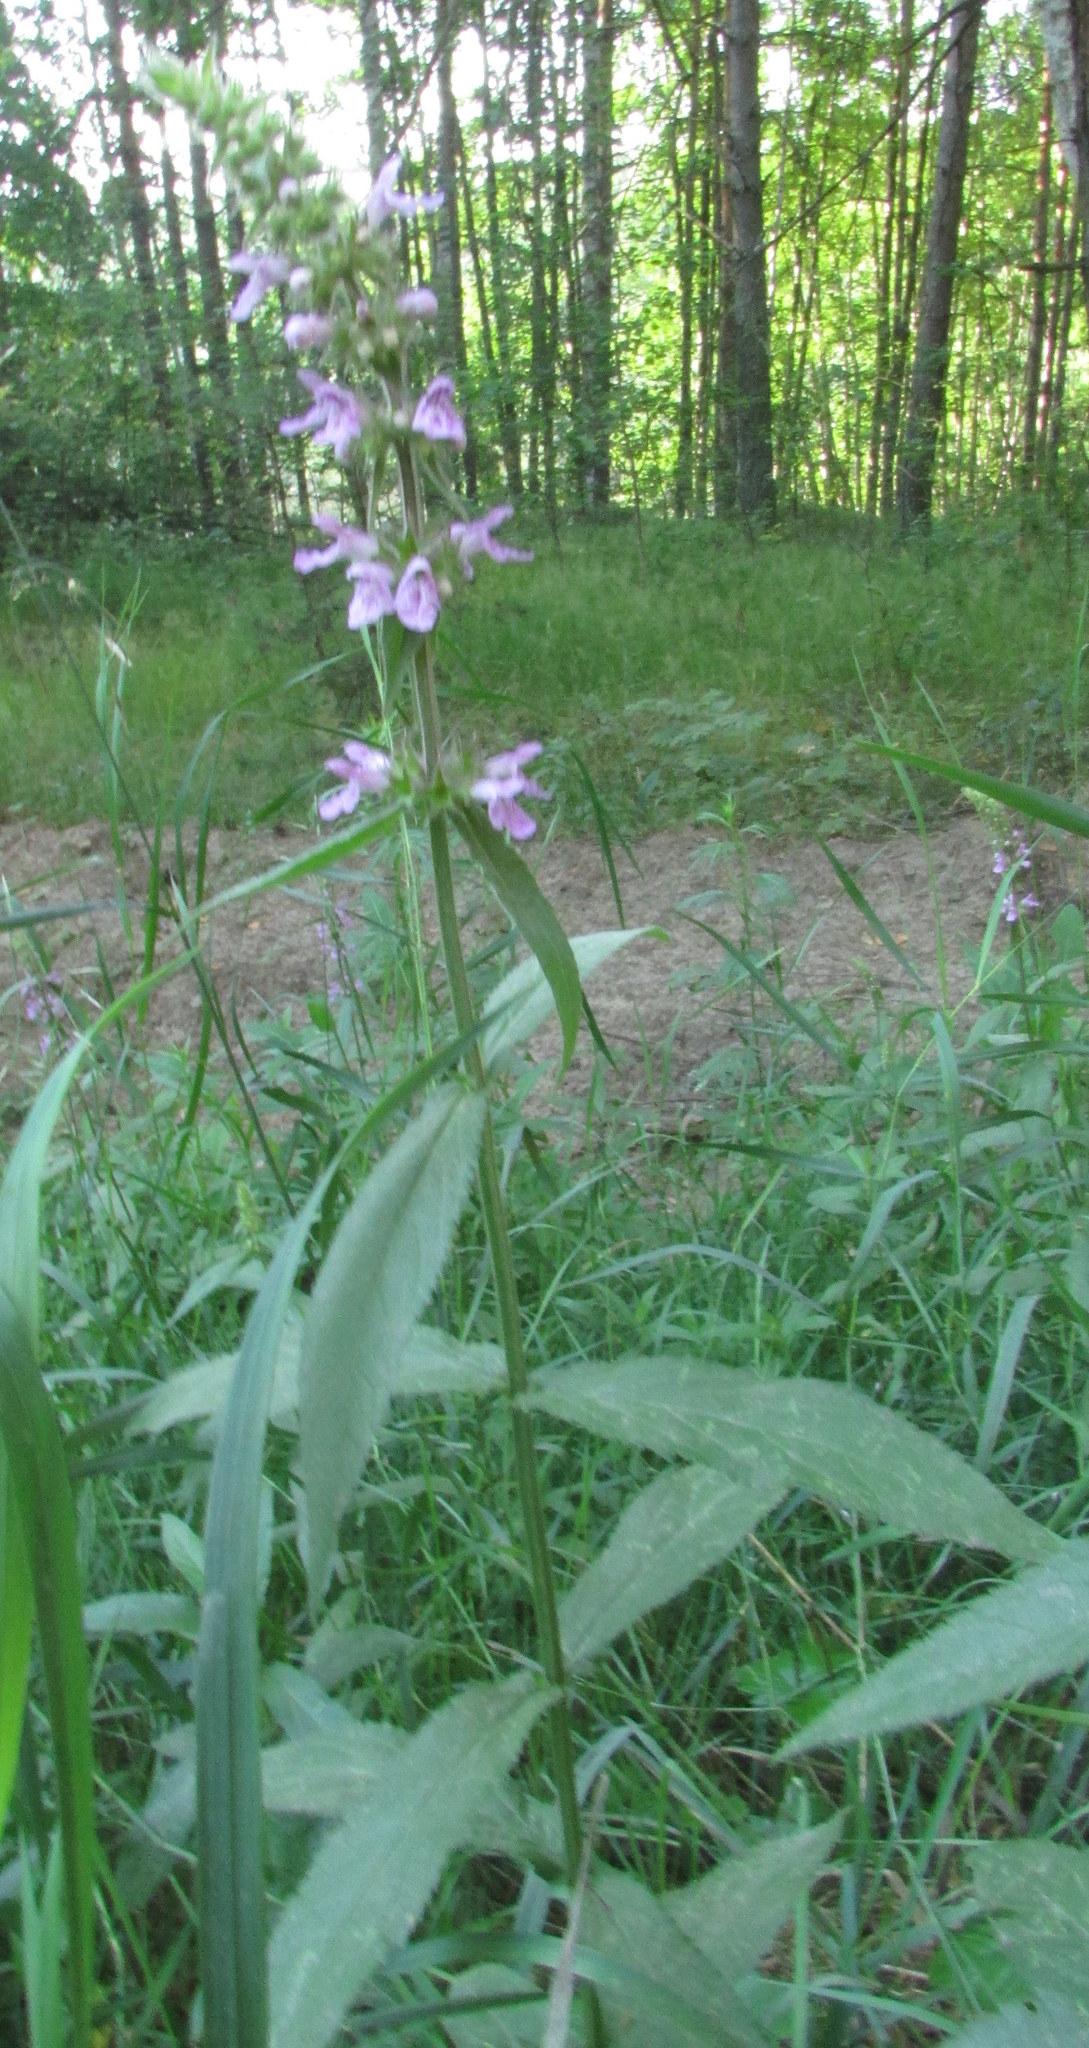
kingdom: Plantae
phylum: Tracheophyta
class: Magnoliopsida
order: Lamiales
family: Lamiaceae
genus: Stachys
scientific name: Stachys palustris
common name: Marsh woundwort
